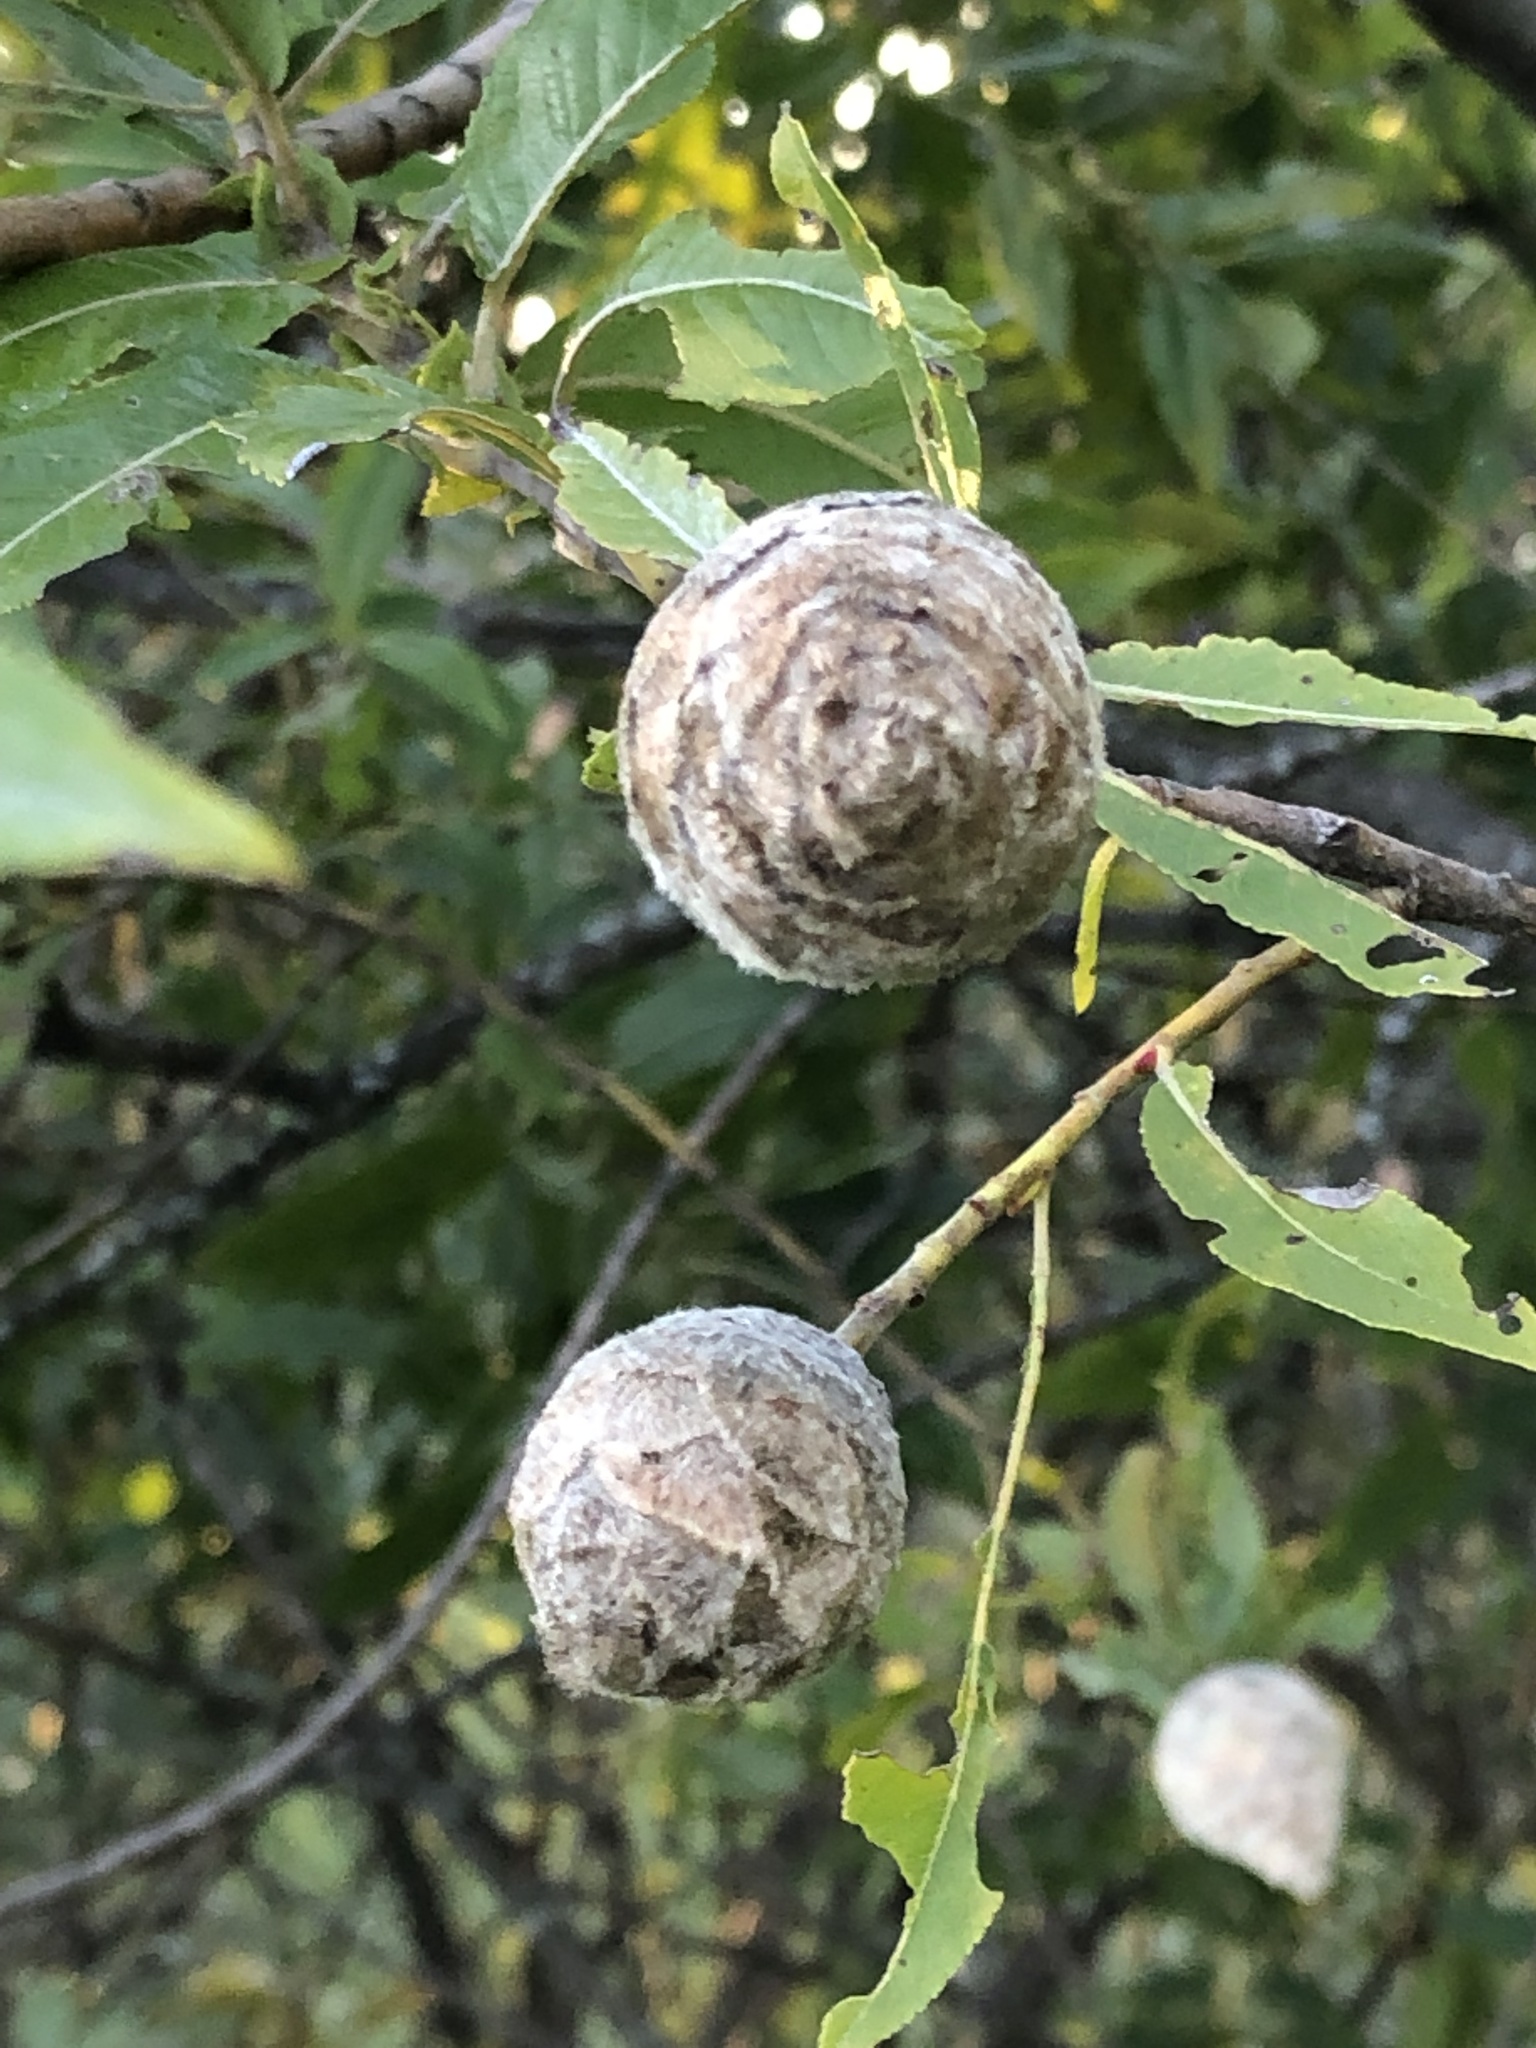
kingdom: Animalia
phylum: Arthropoda
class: Insecta
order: Diptera
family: Cecidomyiidae
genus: Rabdophaga
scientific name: Rabdophaga strobiloides
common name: Willow pinecone gall midge
